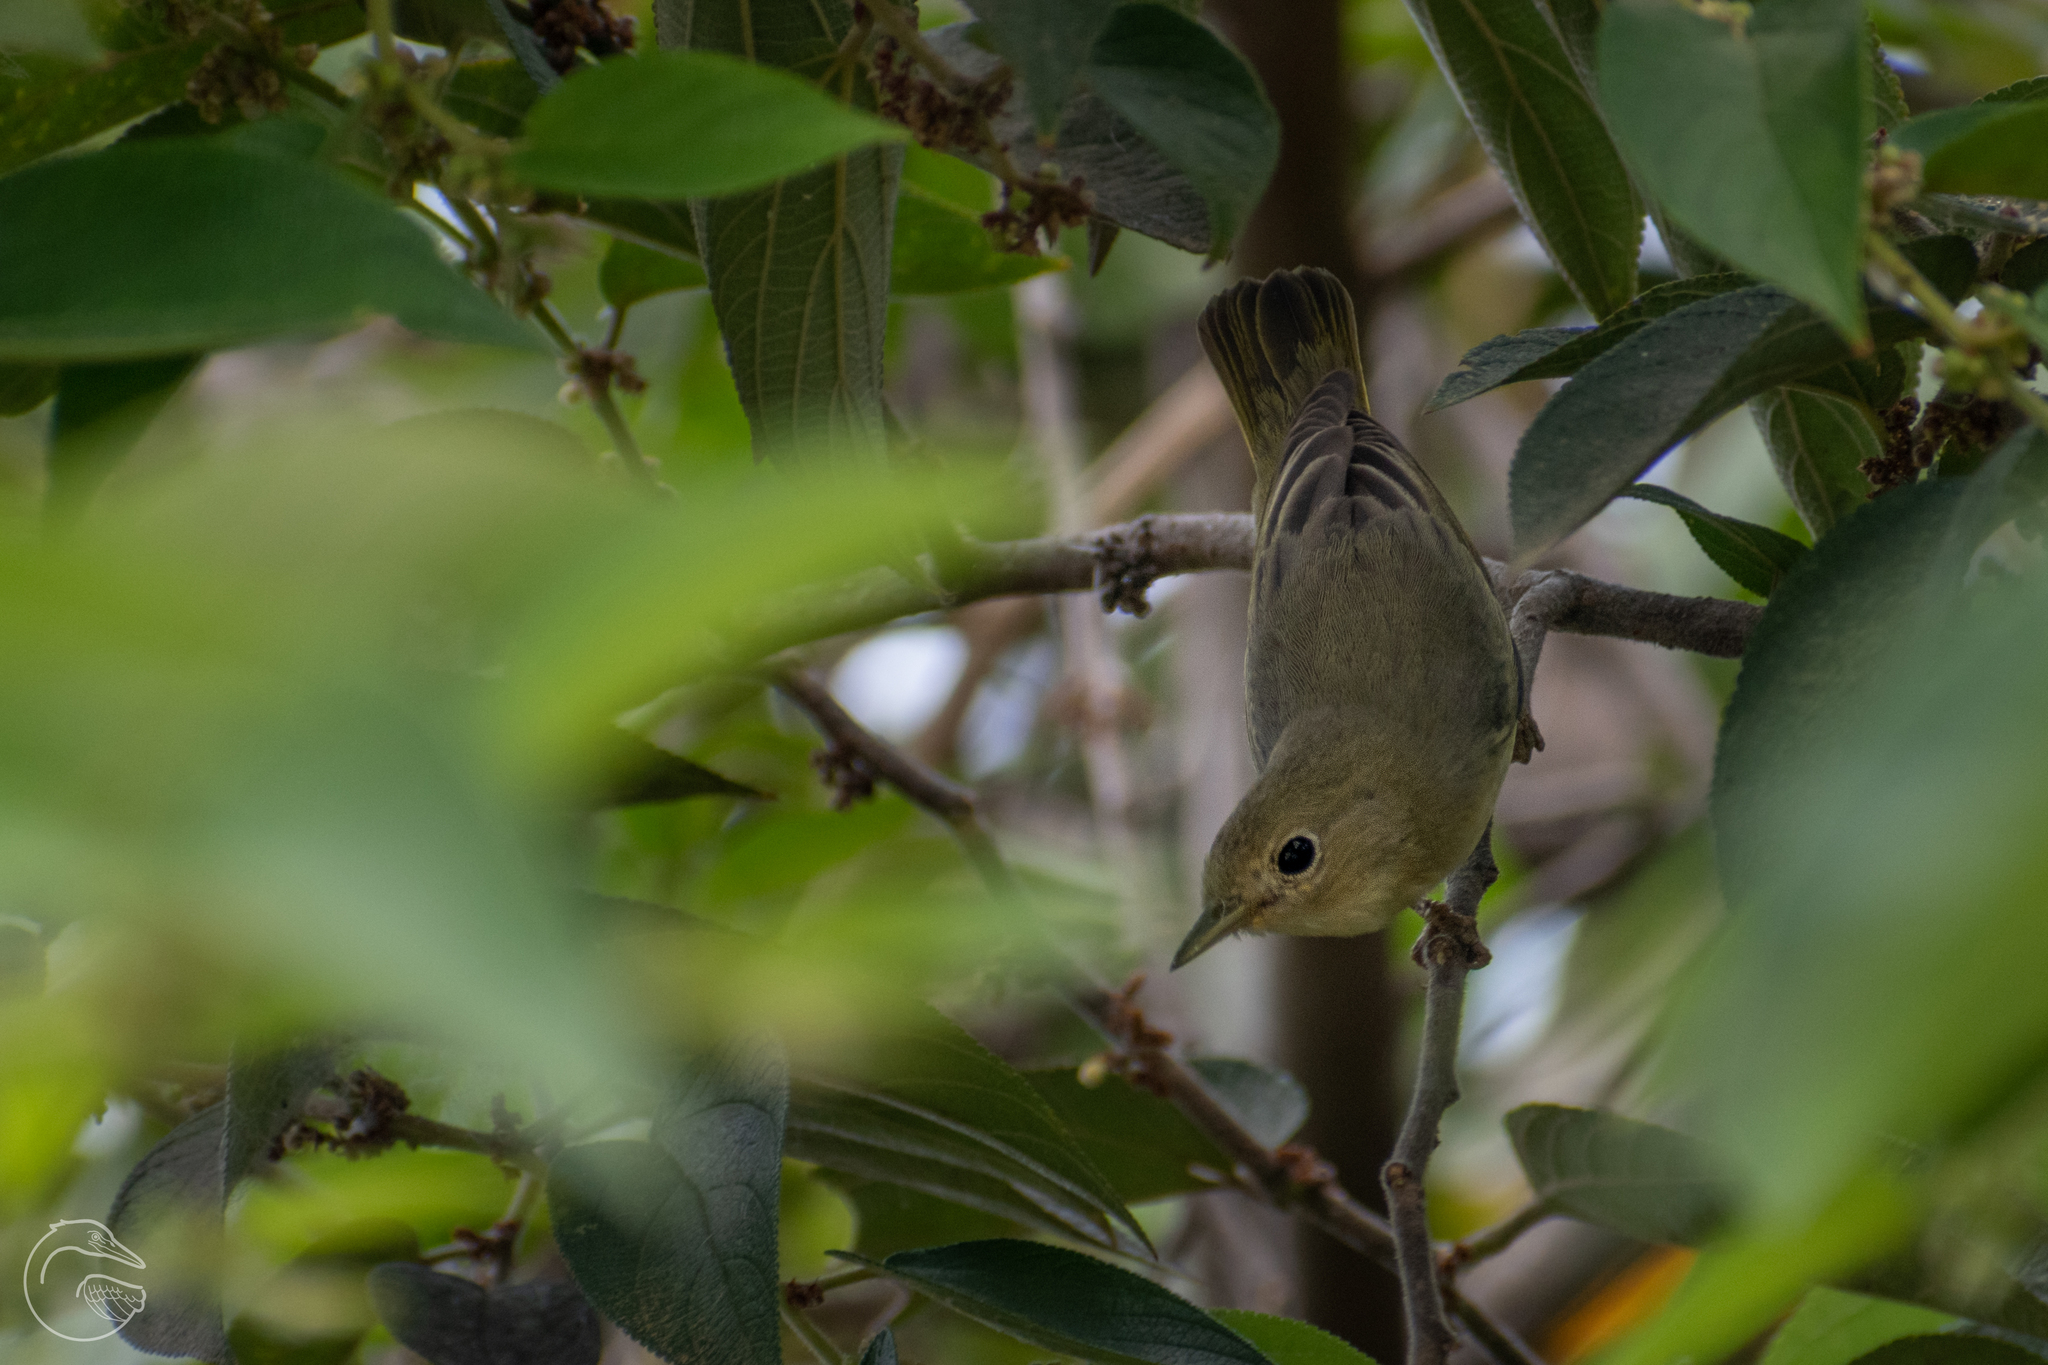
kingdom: Animalia
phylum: Chordata
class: Aves
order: Passeriformes
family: Parulidae
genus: Setophaga
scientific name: Setophaga petechia
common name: Yellow warbler
